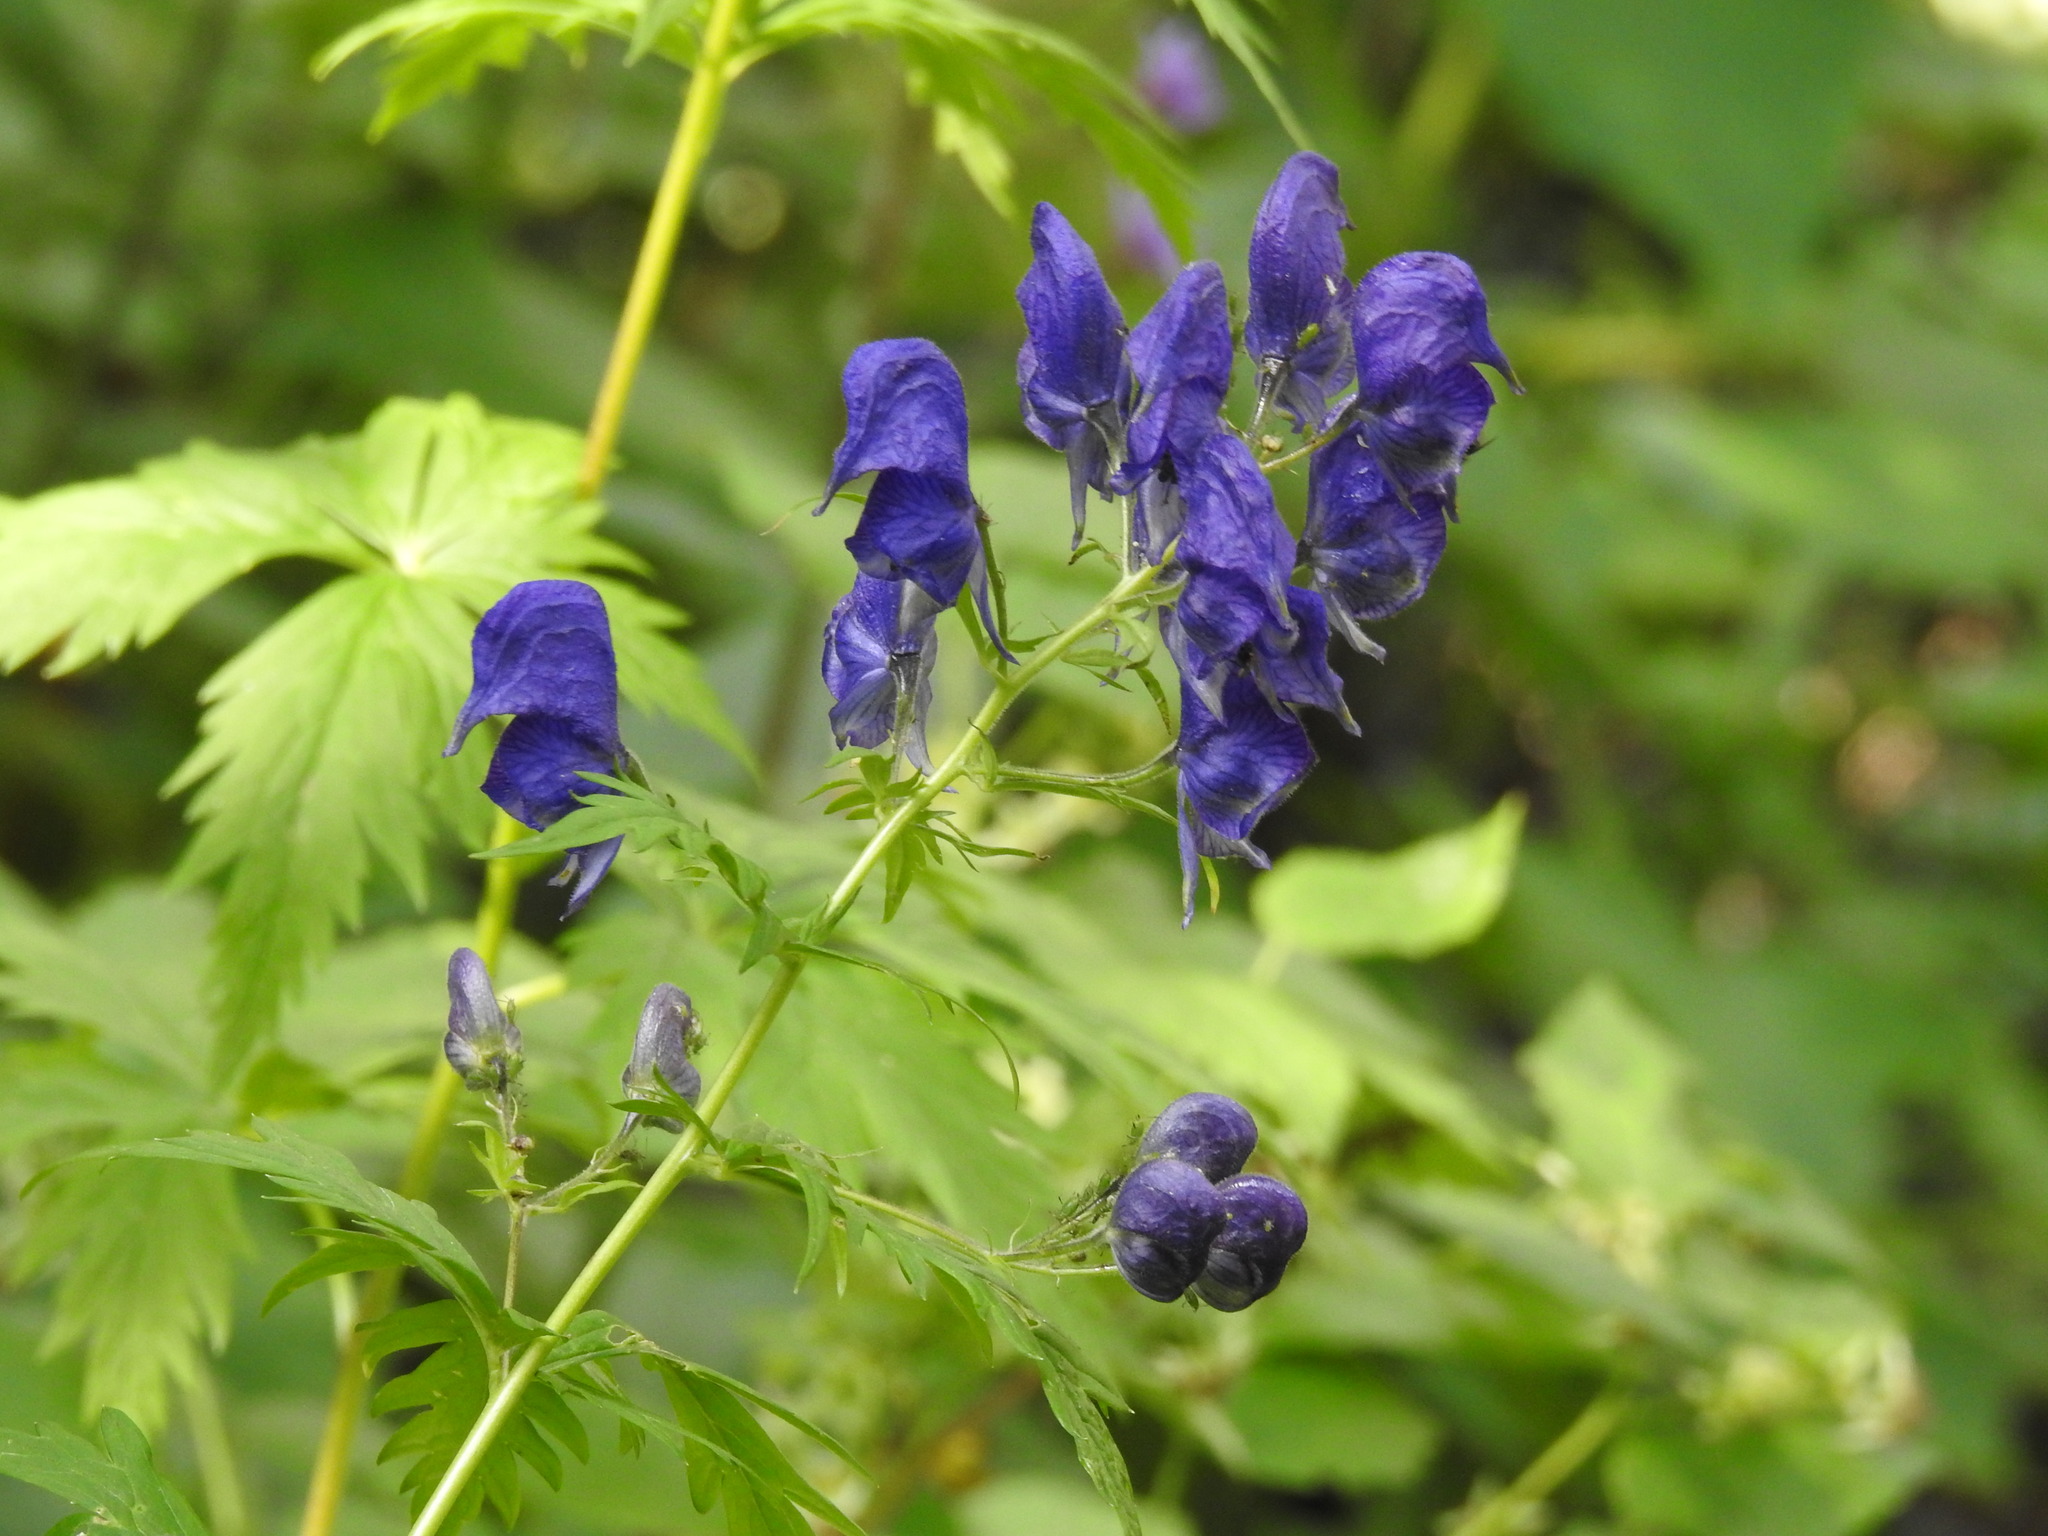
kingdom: Plantae
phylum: Tracheophyta
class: Magnoliopsida
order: Ranunculales
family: Ranunculaceae
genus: Aconitum
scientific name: Aconitum degenii
